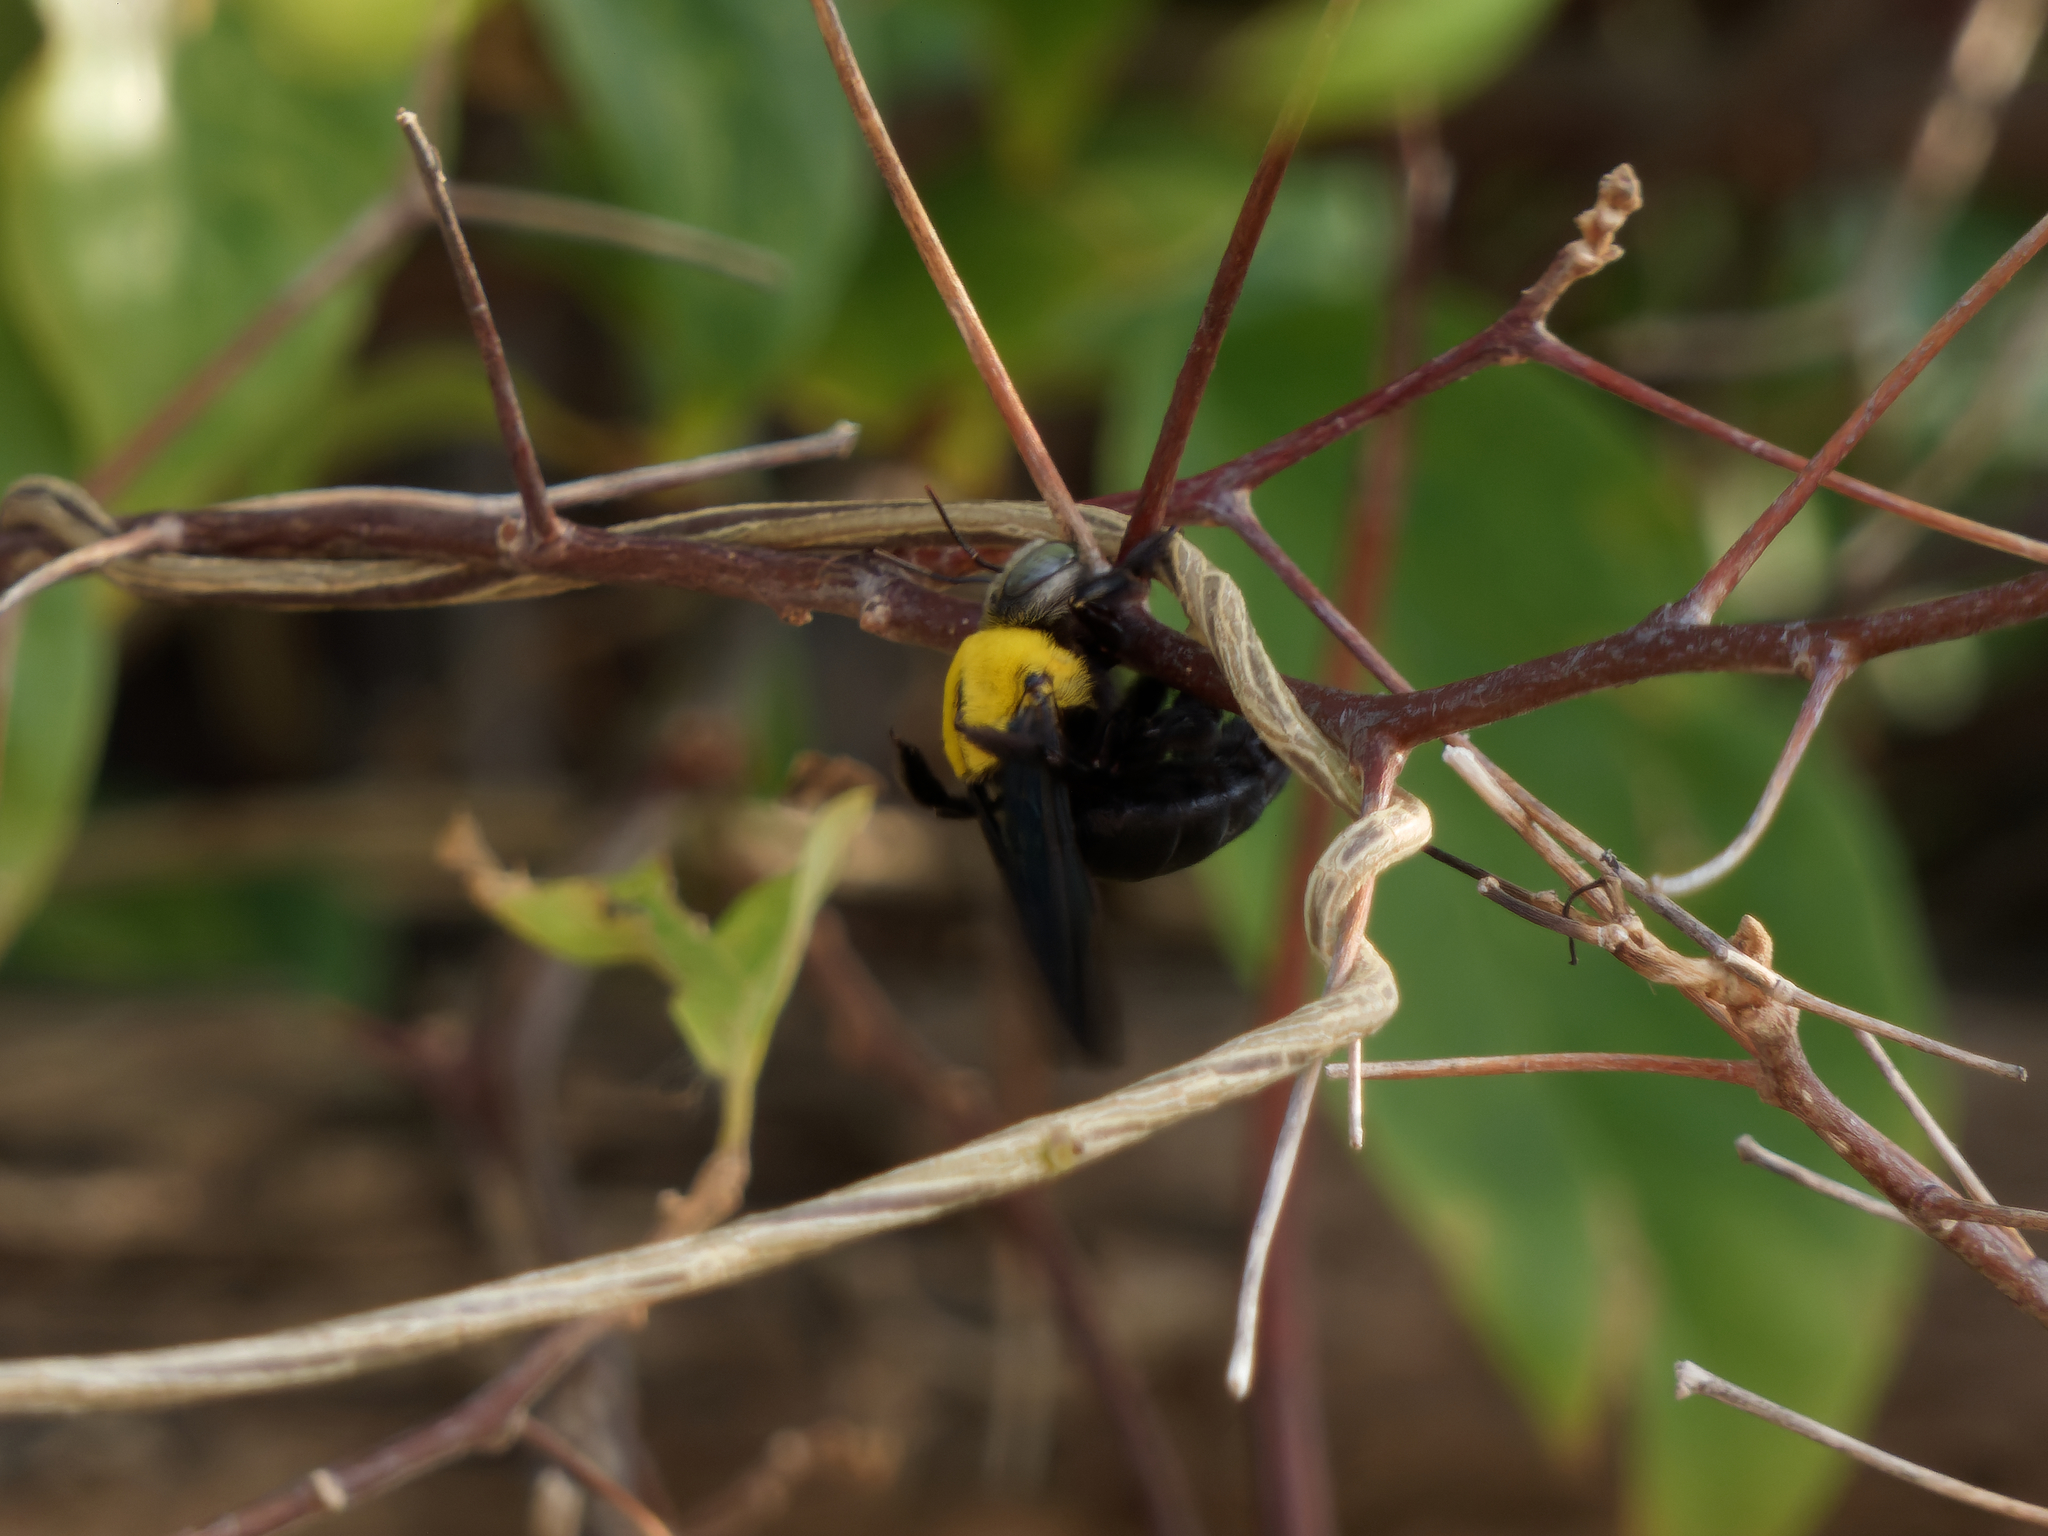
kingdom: Animalia
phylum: Arthropoda
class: Insecta
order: Hymenoptera
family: Apidae
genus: Xylocopa
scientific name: Xylocopa minor
